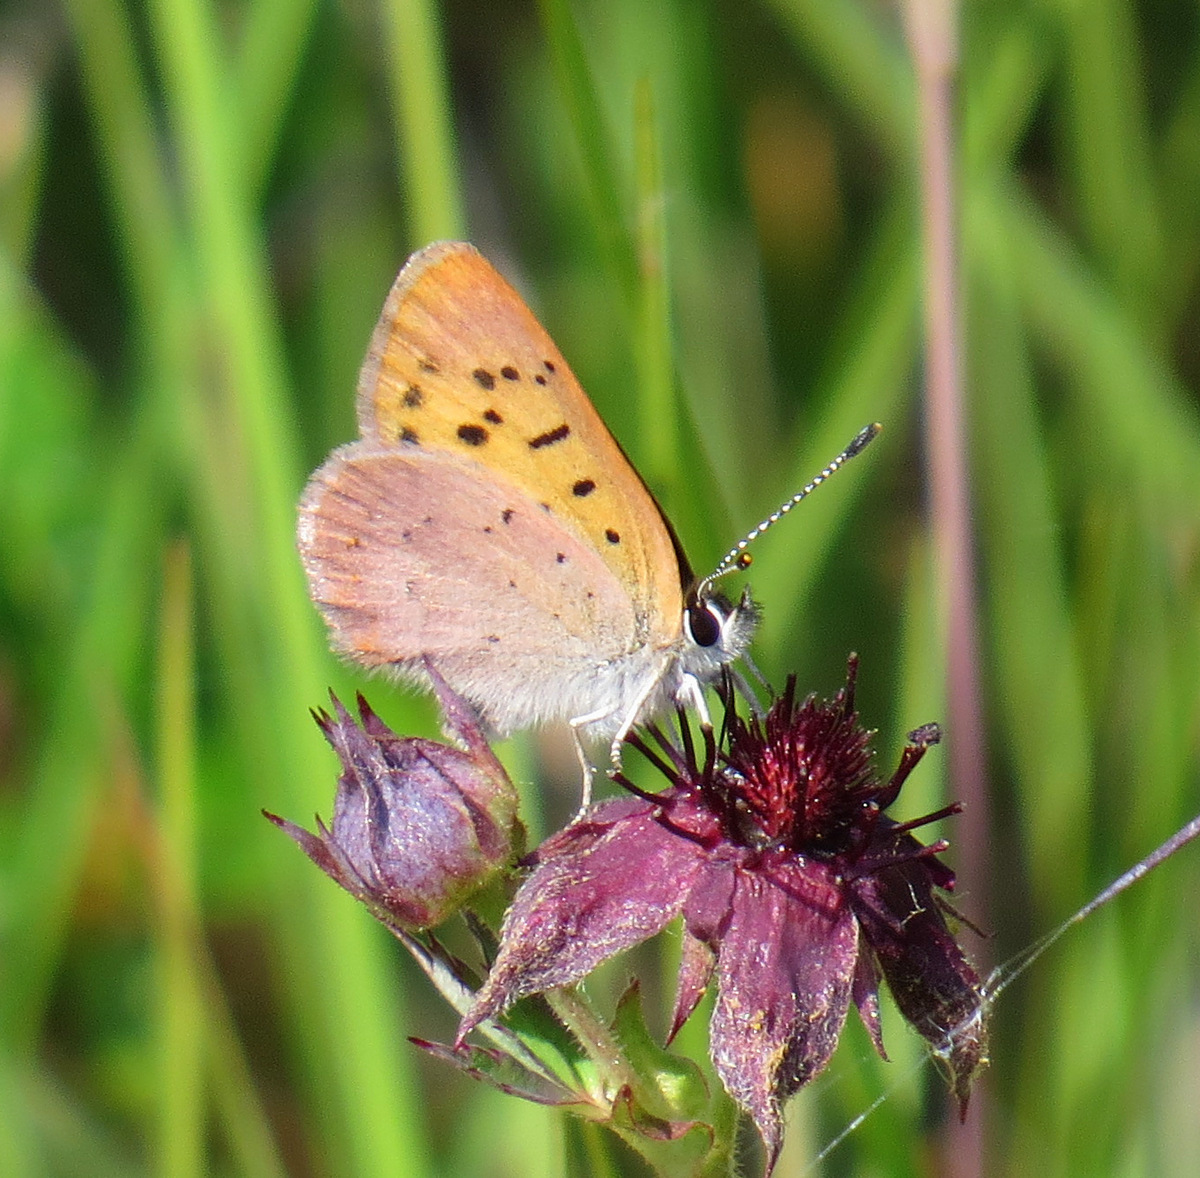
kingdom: Animalia
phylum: Arthropoda
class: Insecta
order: Lepidoptera
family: Lycaenidae
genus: Tharsalea
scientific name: Tharsalea dorcas
